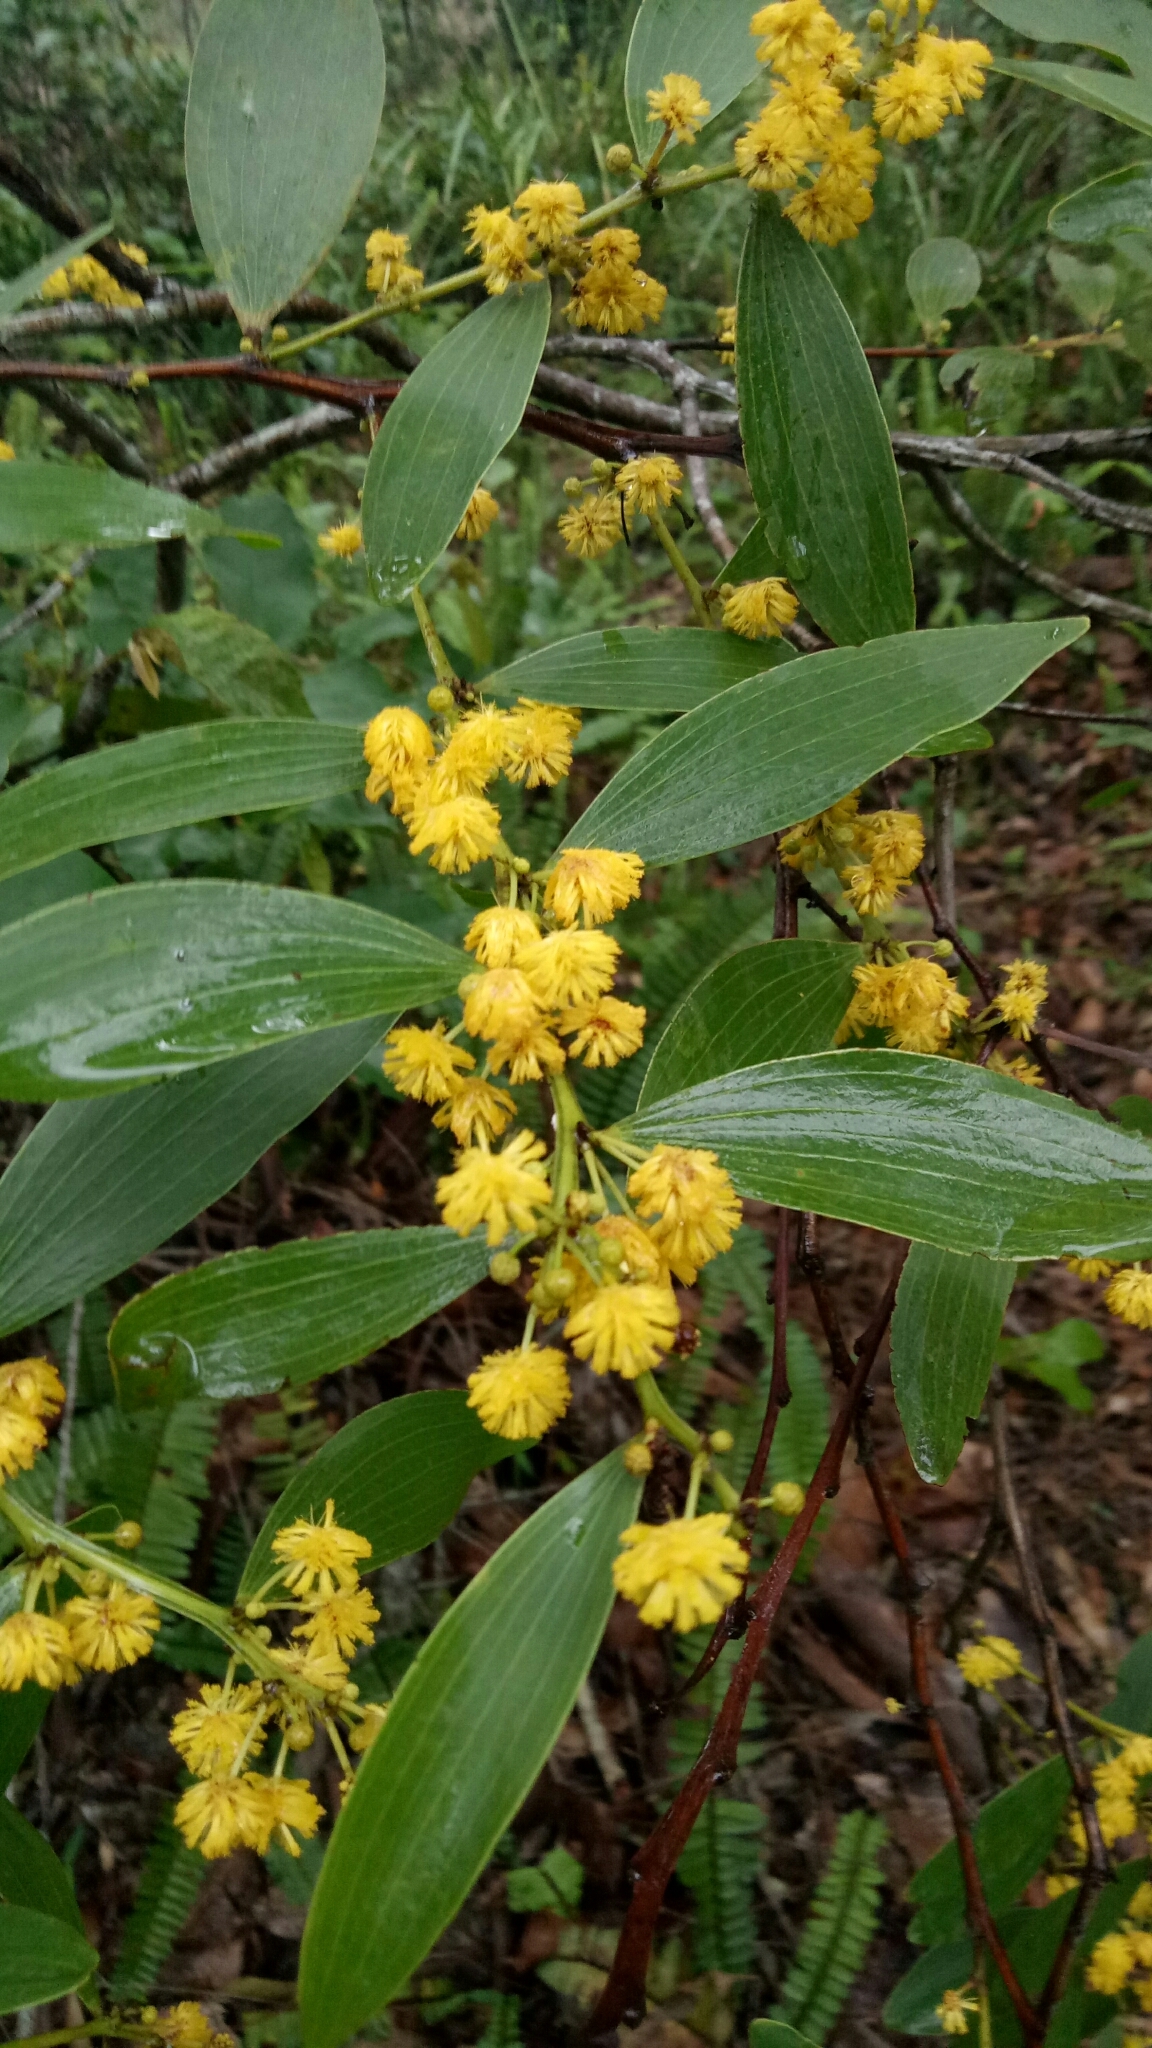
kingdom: Plantae
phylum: Tracheophyta
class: Magnoliopsida
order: Fabales
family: Fabaceae
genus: Acacia
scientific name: Acacia complanata
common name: Flat-stemmed wattle
